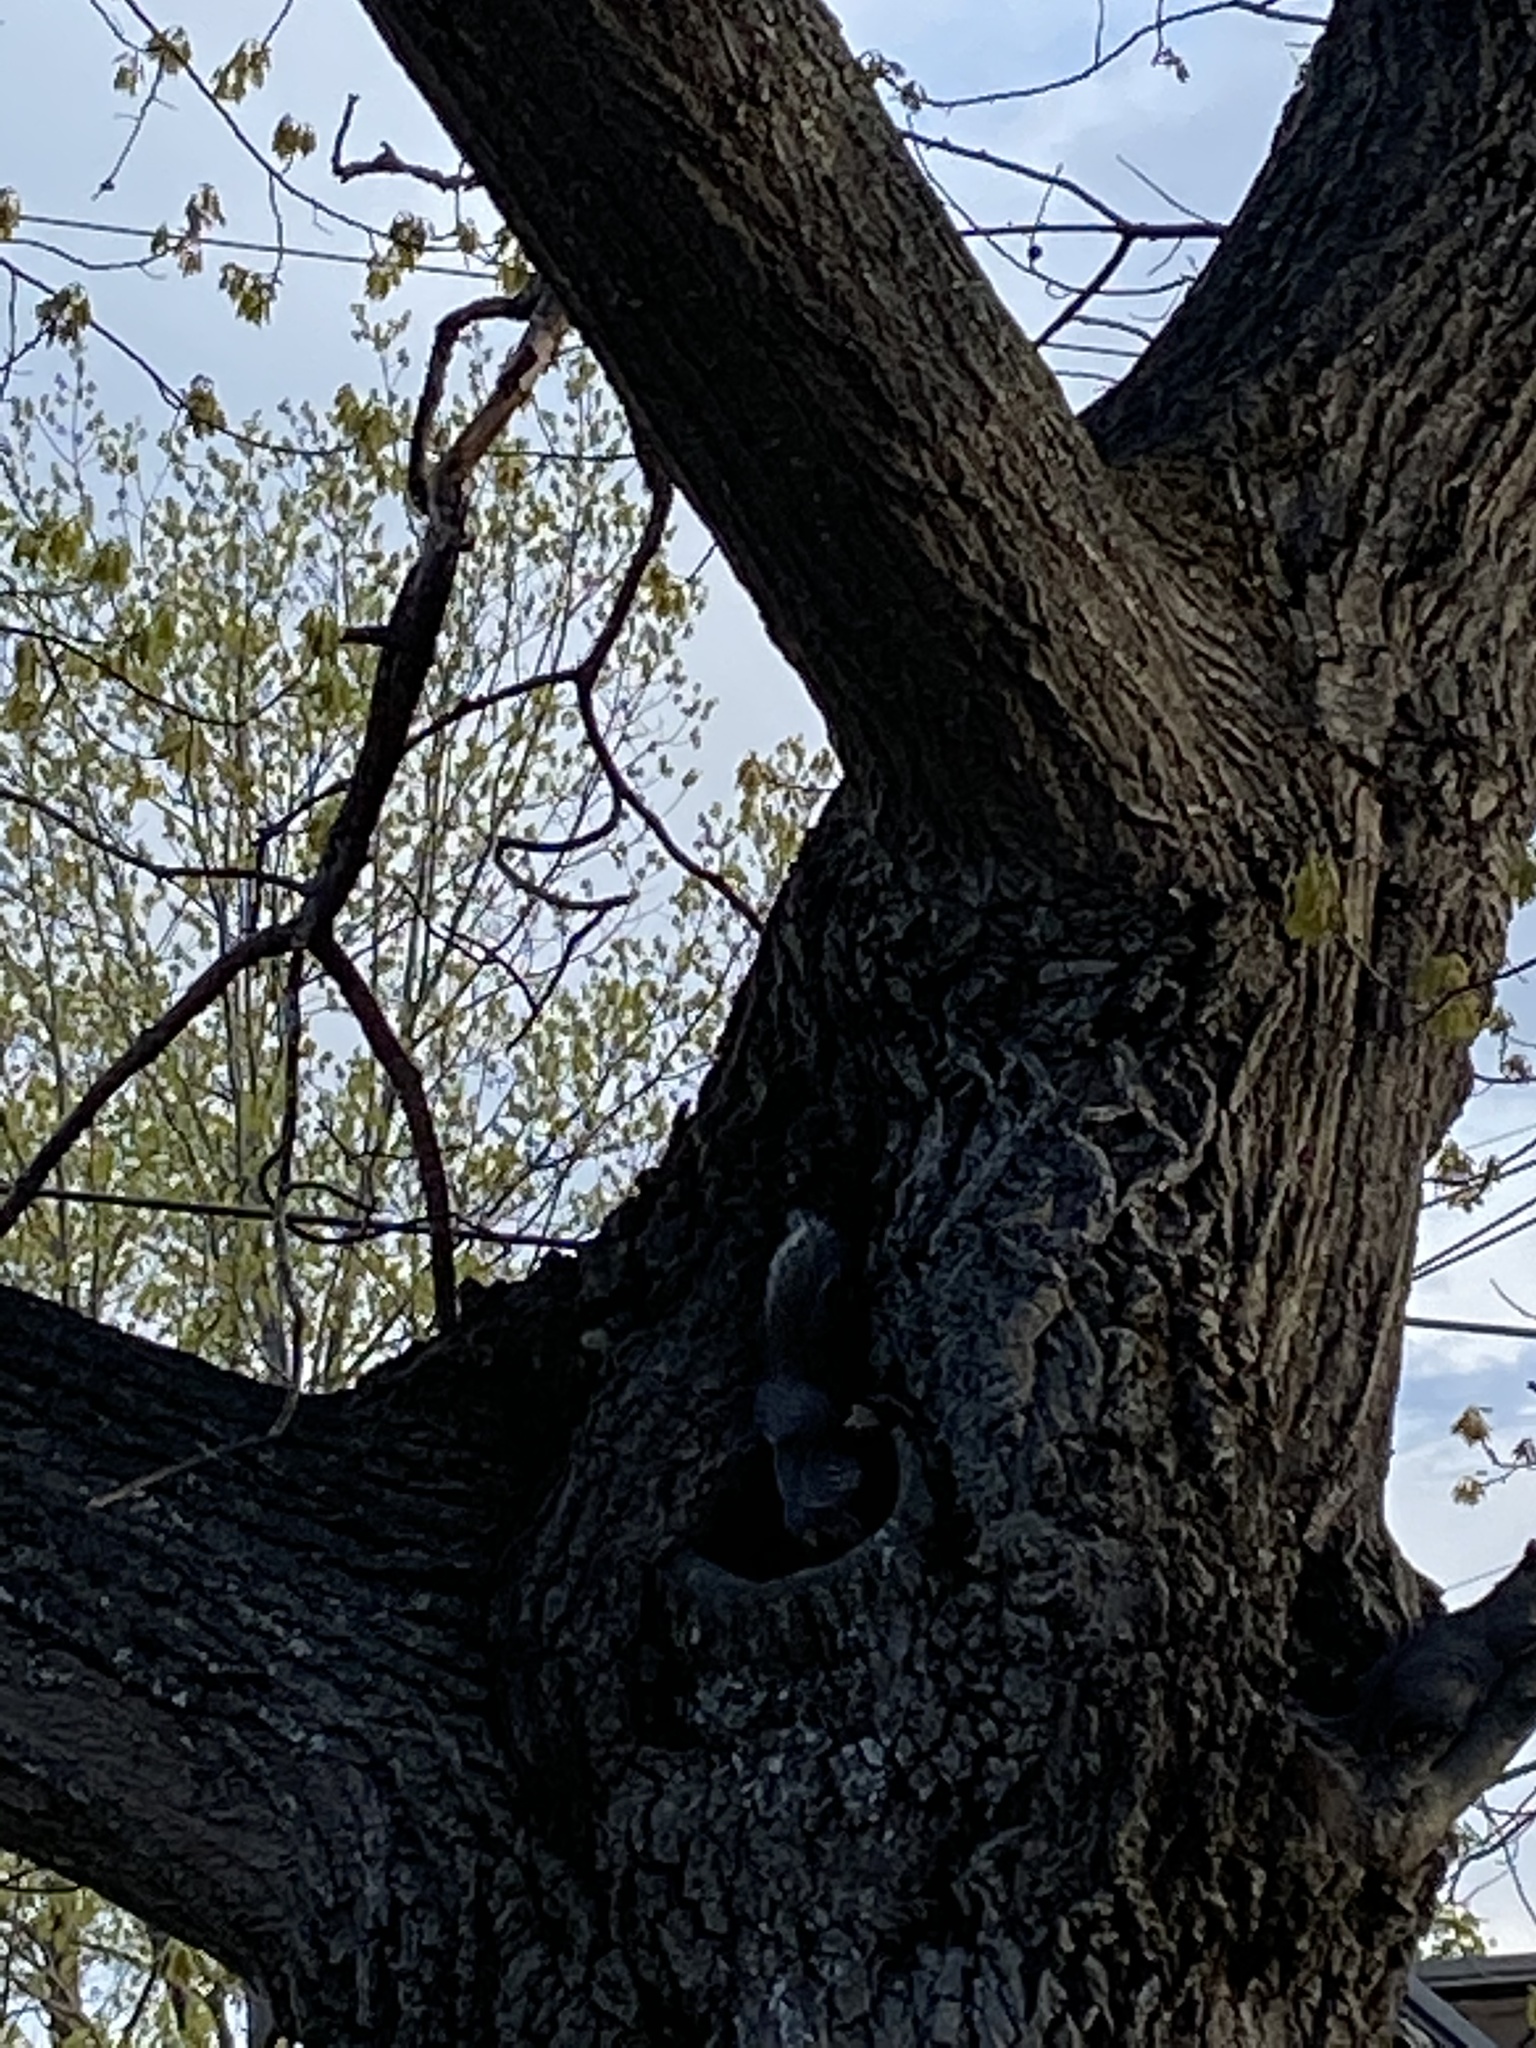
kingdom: Animalia
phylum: Chordata
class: Mammalia
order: Rodentia
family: Sciuridae
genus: Sciurus
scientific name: Sciurus carolinensis
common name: Eastern gray squirrel
